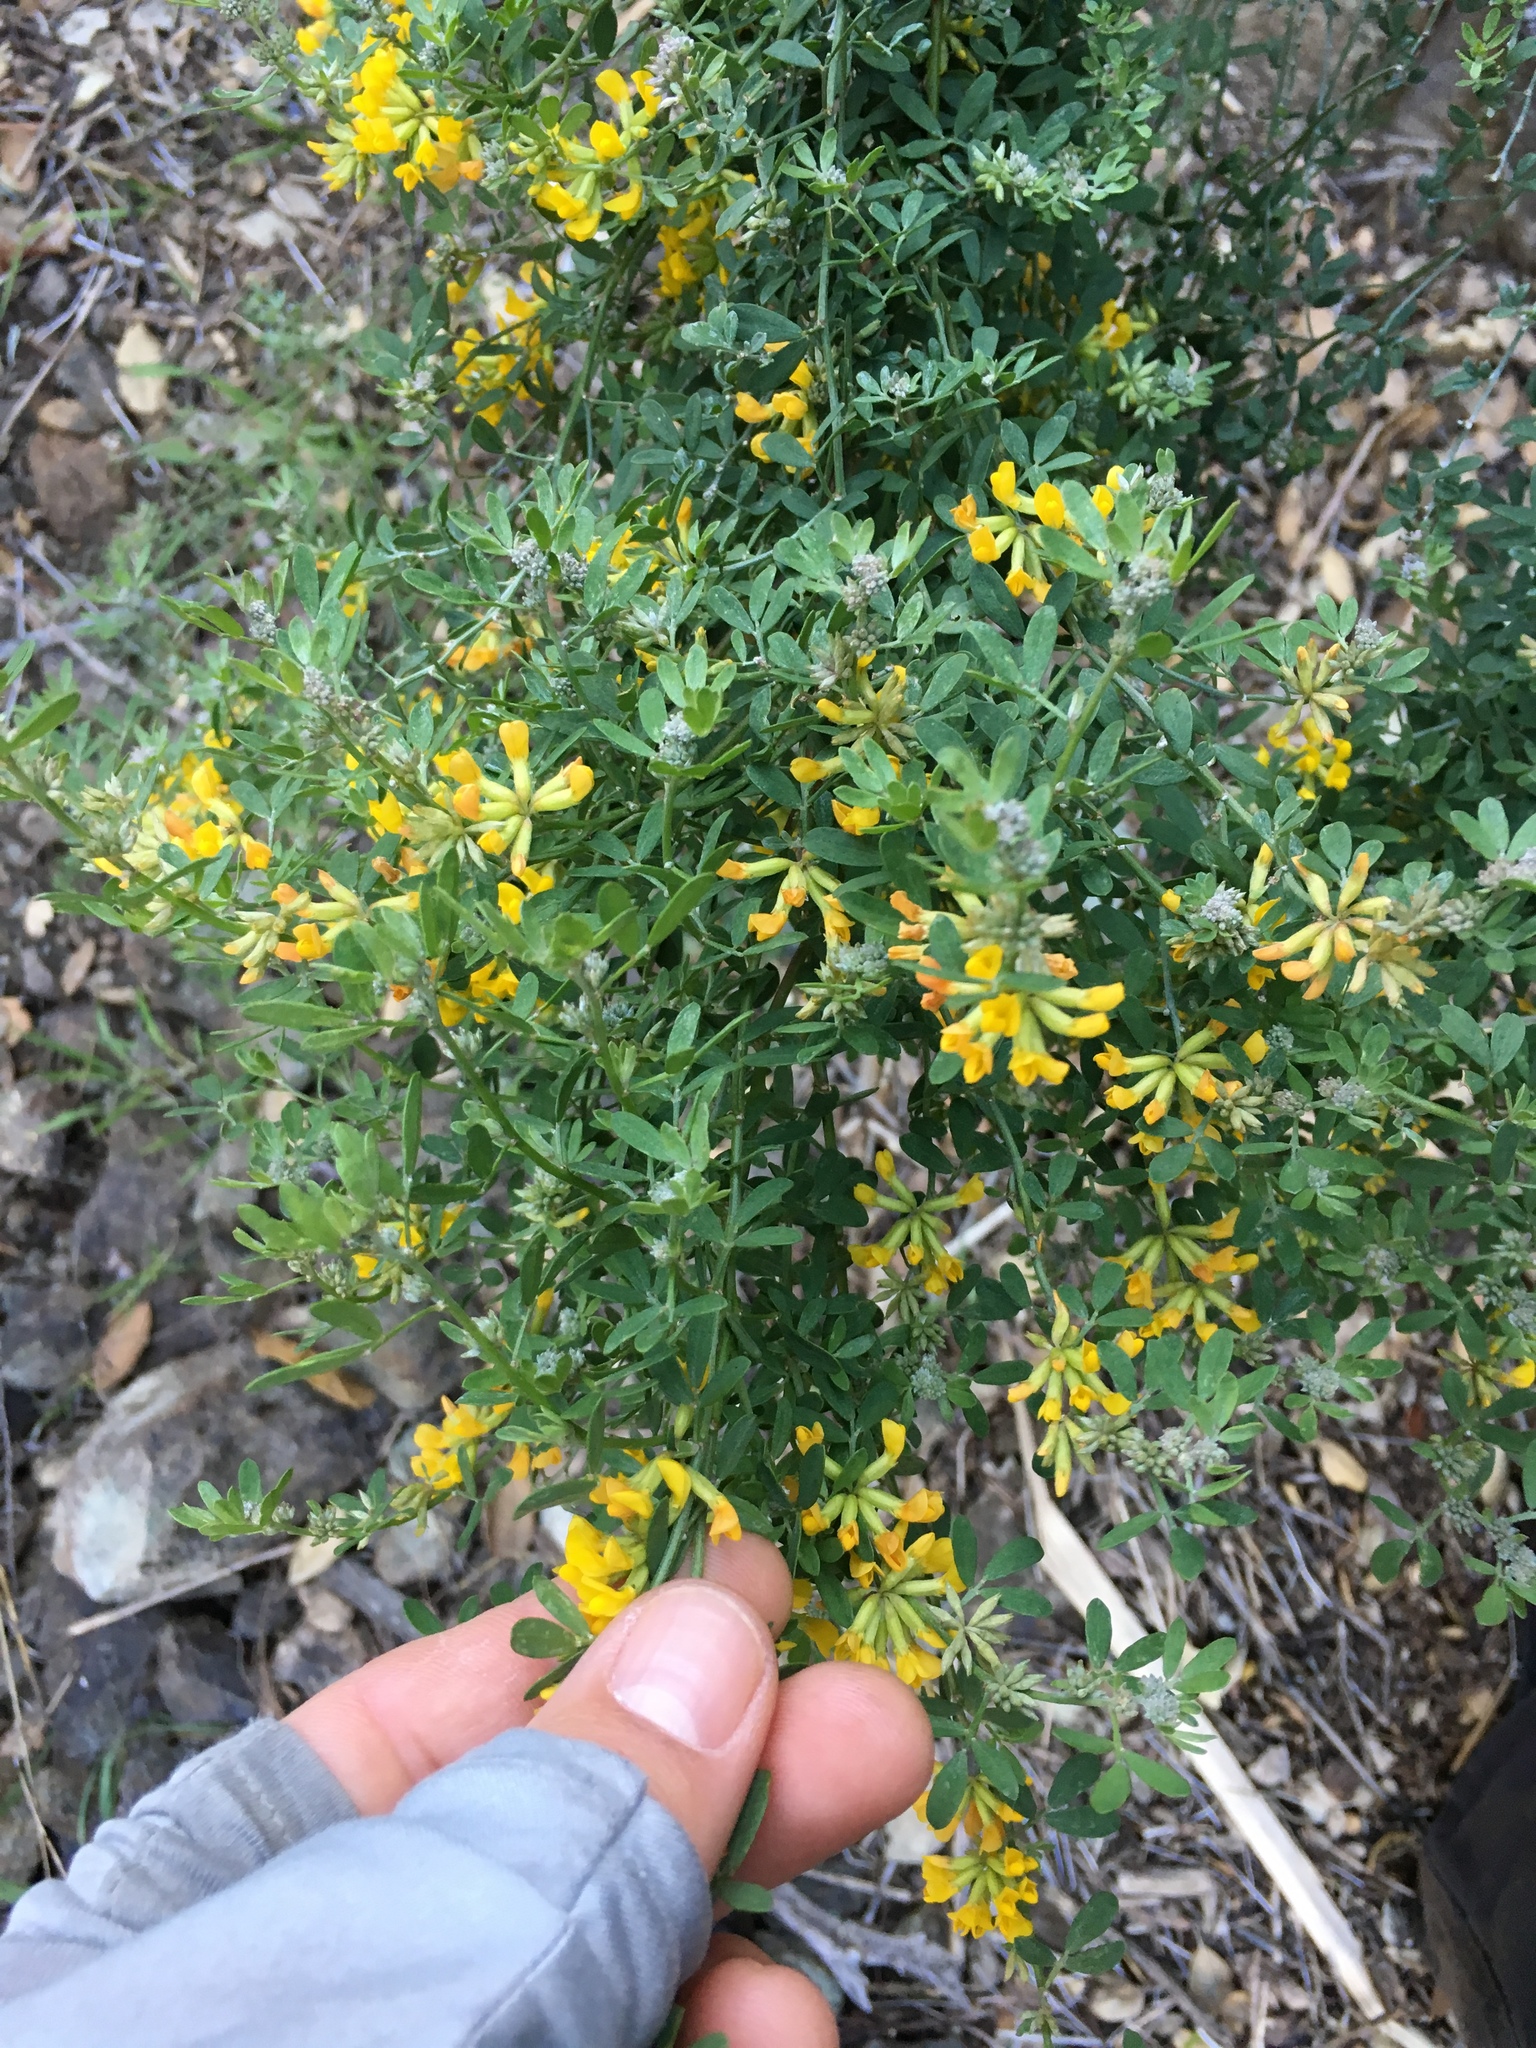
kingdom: Plantae
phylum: Tracheophyta
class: Magnoliopsida
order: Fabales
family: Fabaceae
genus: Acmispon
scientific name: Acmispon dendroideus
